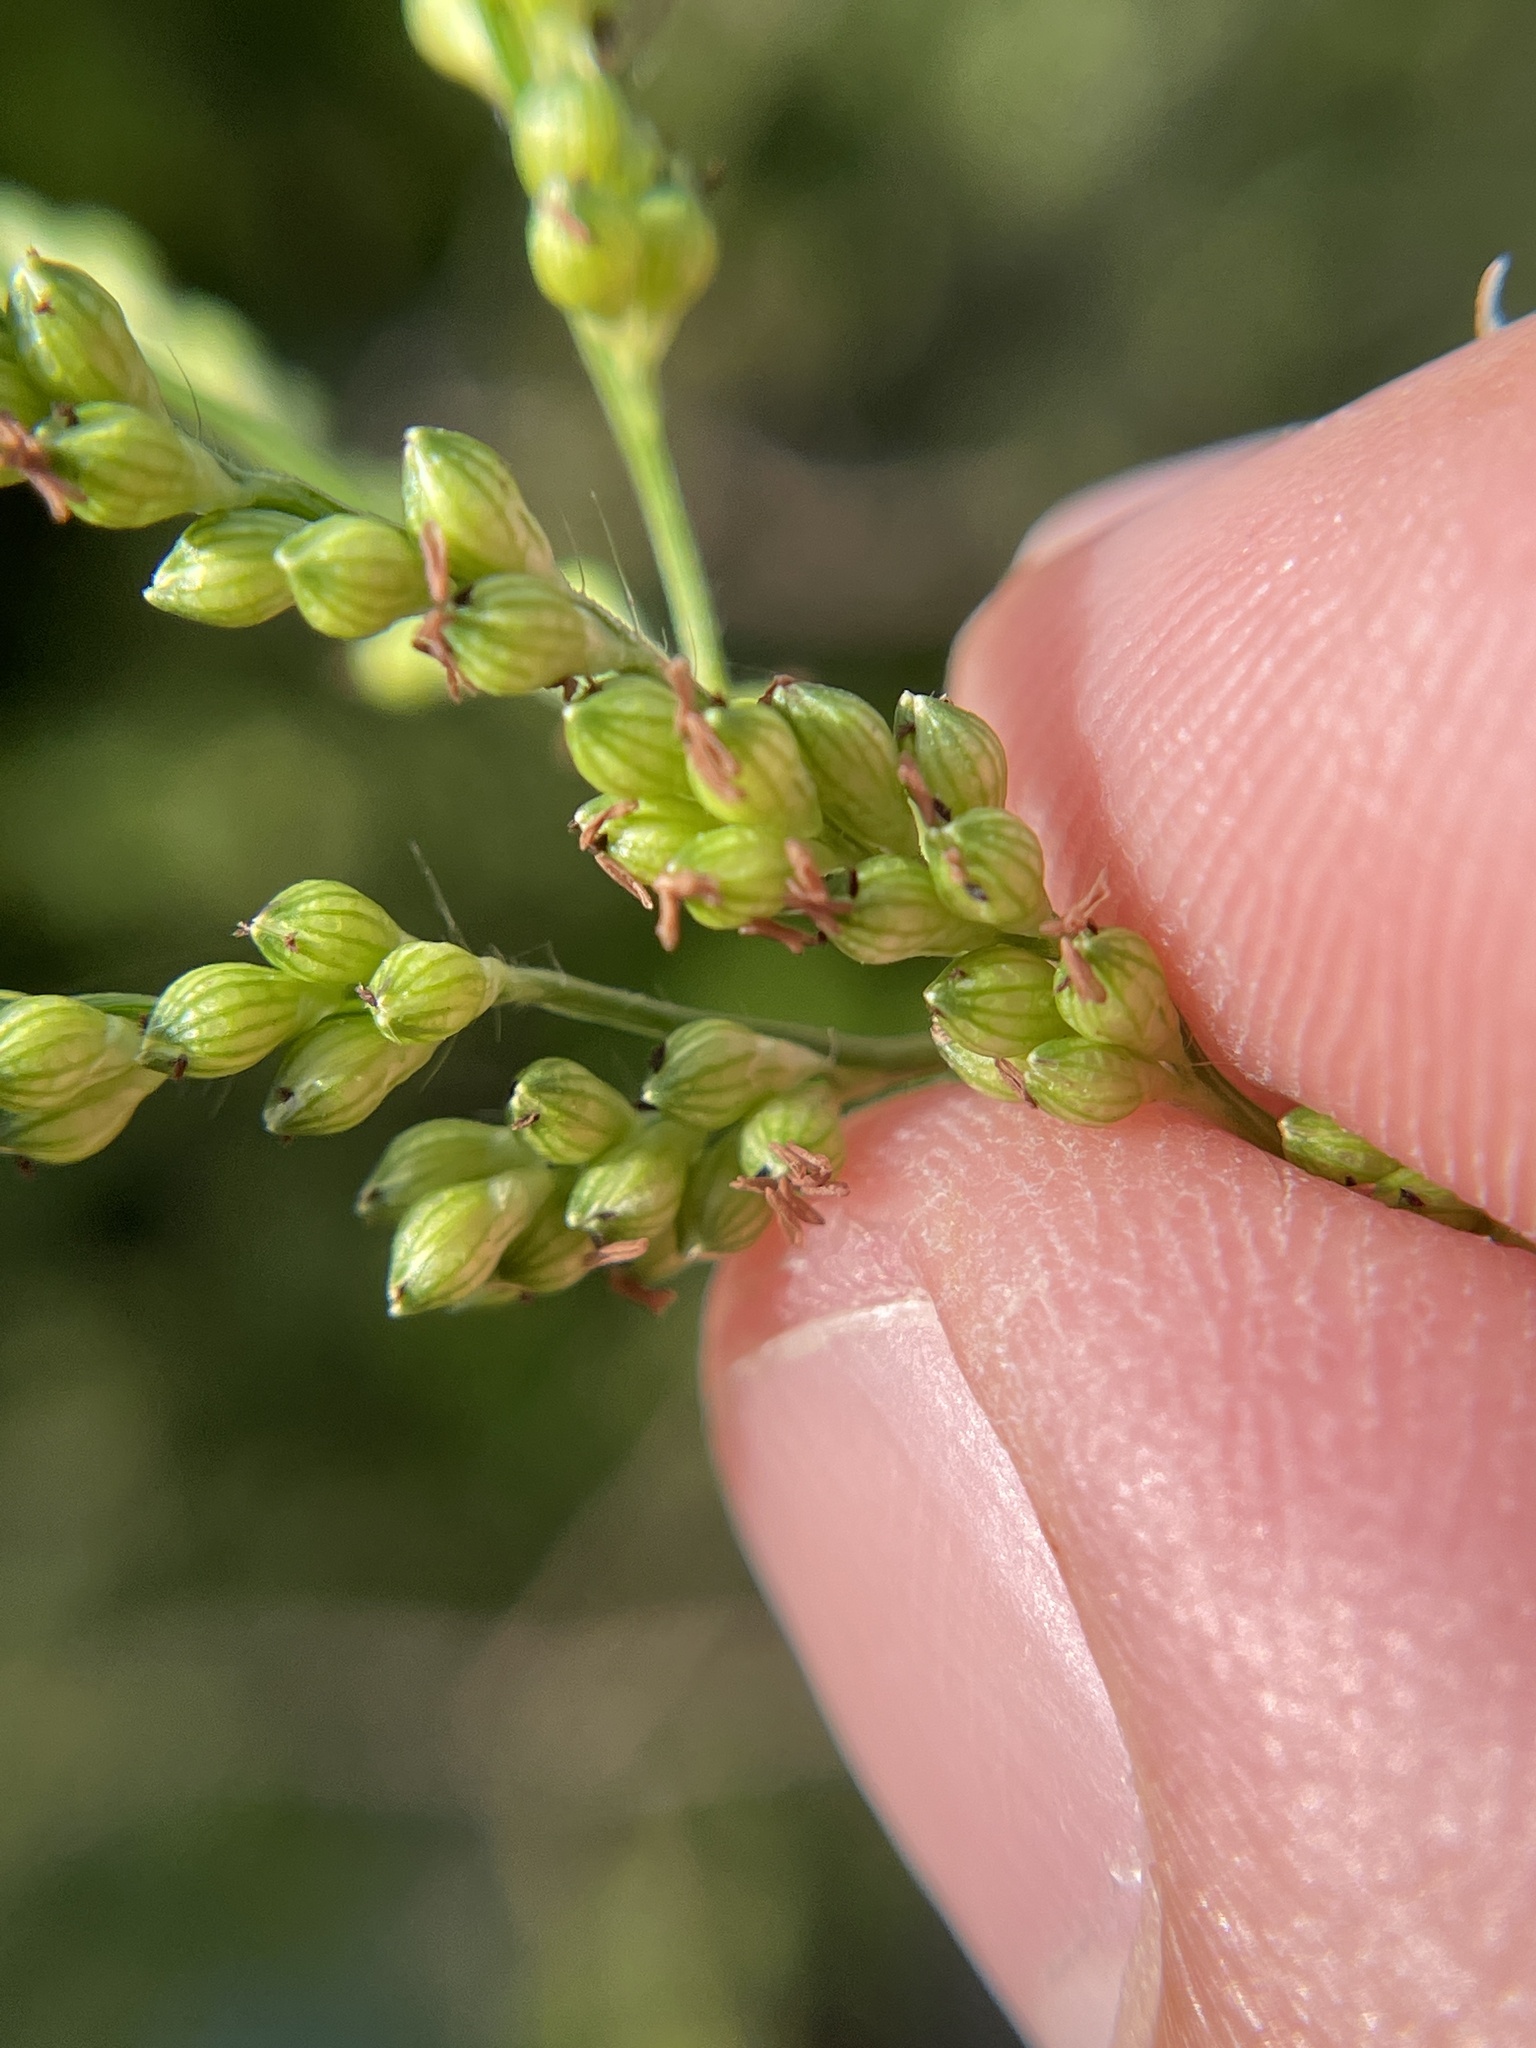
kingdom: Plantae
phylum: Tracheophyta
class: Liliopsida
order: Poales
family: Poaceae
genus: Urochloa
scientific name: Urochloa fusca
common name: Browntop signal grass
